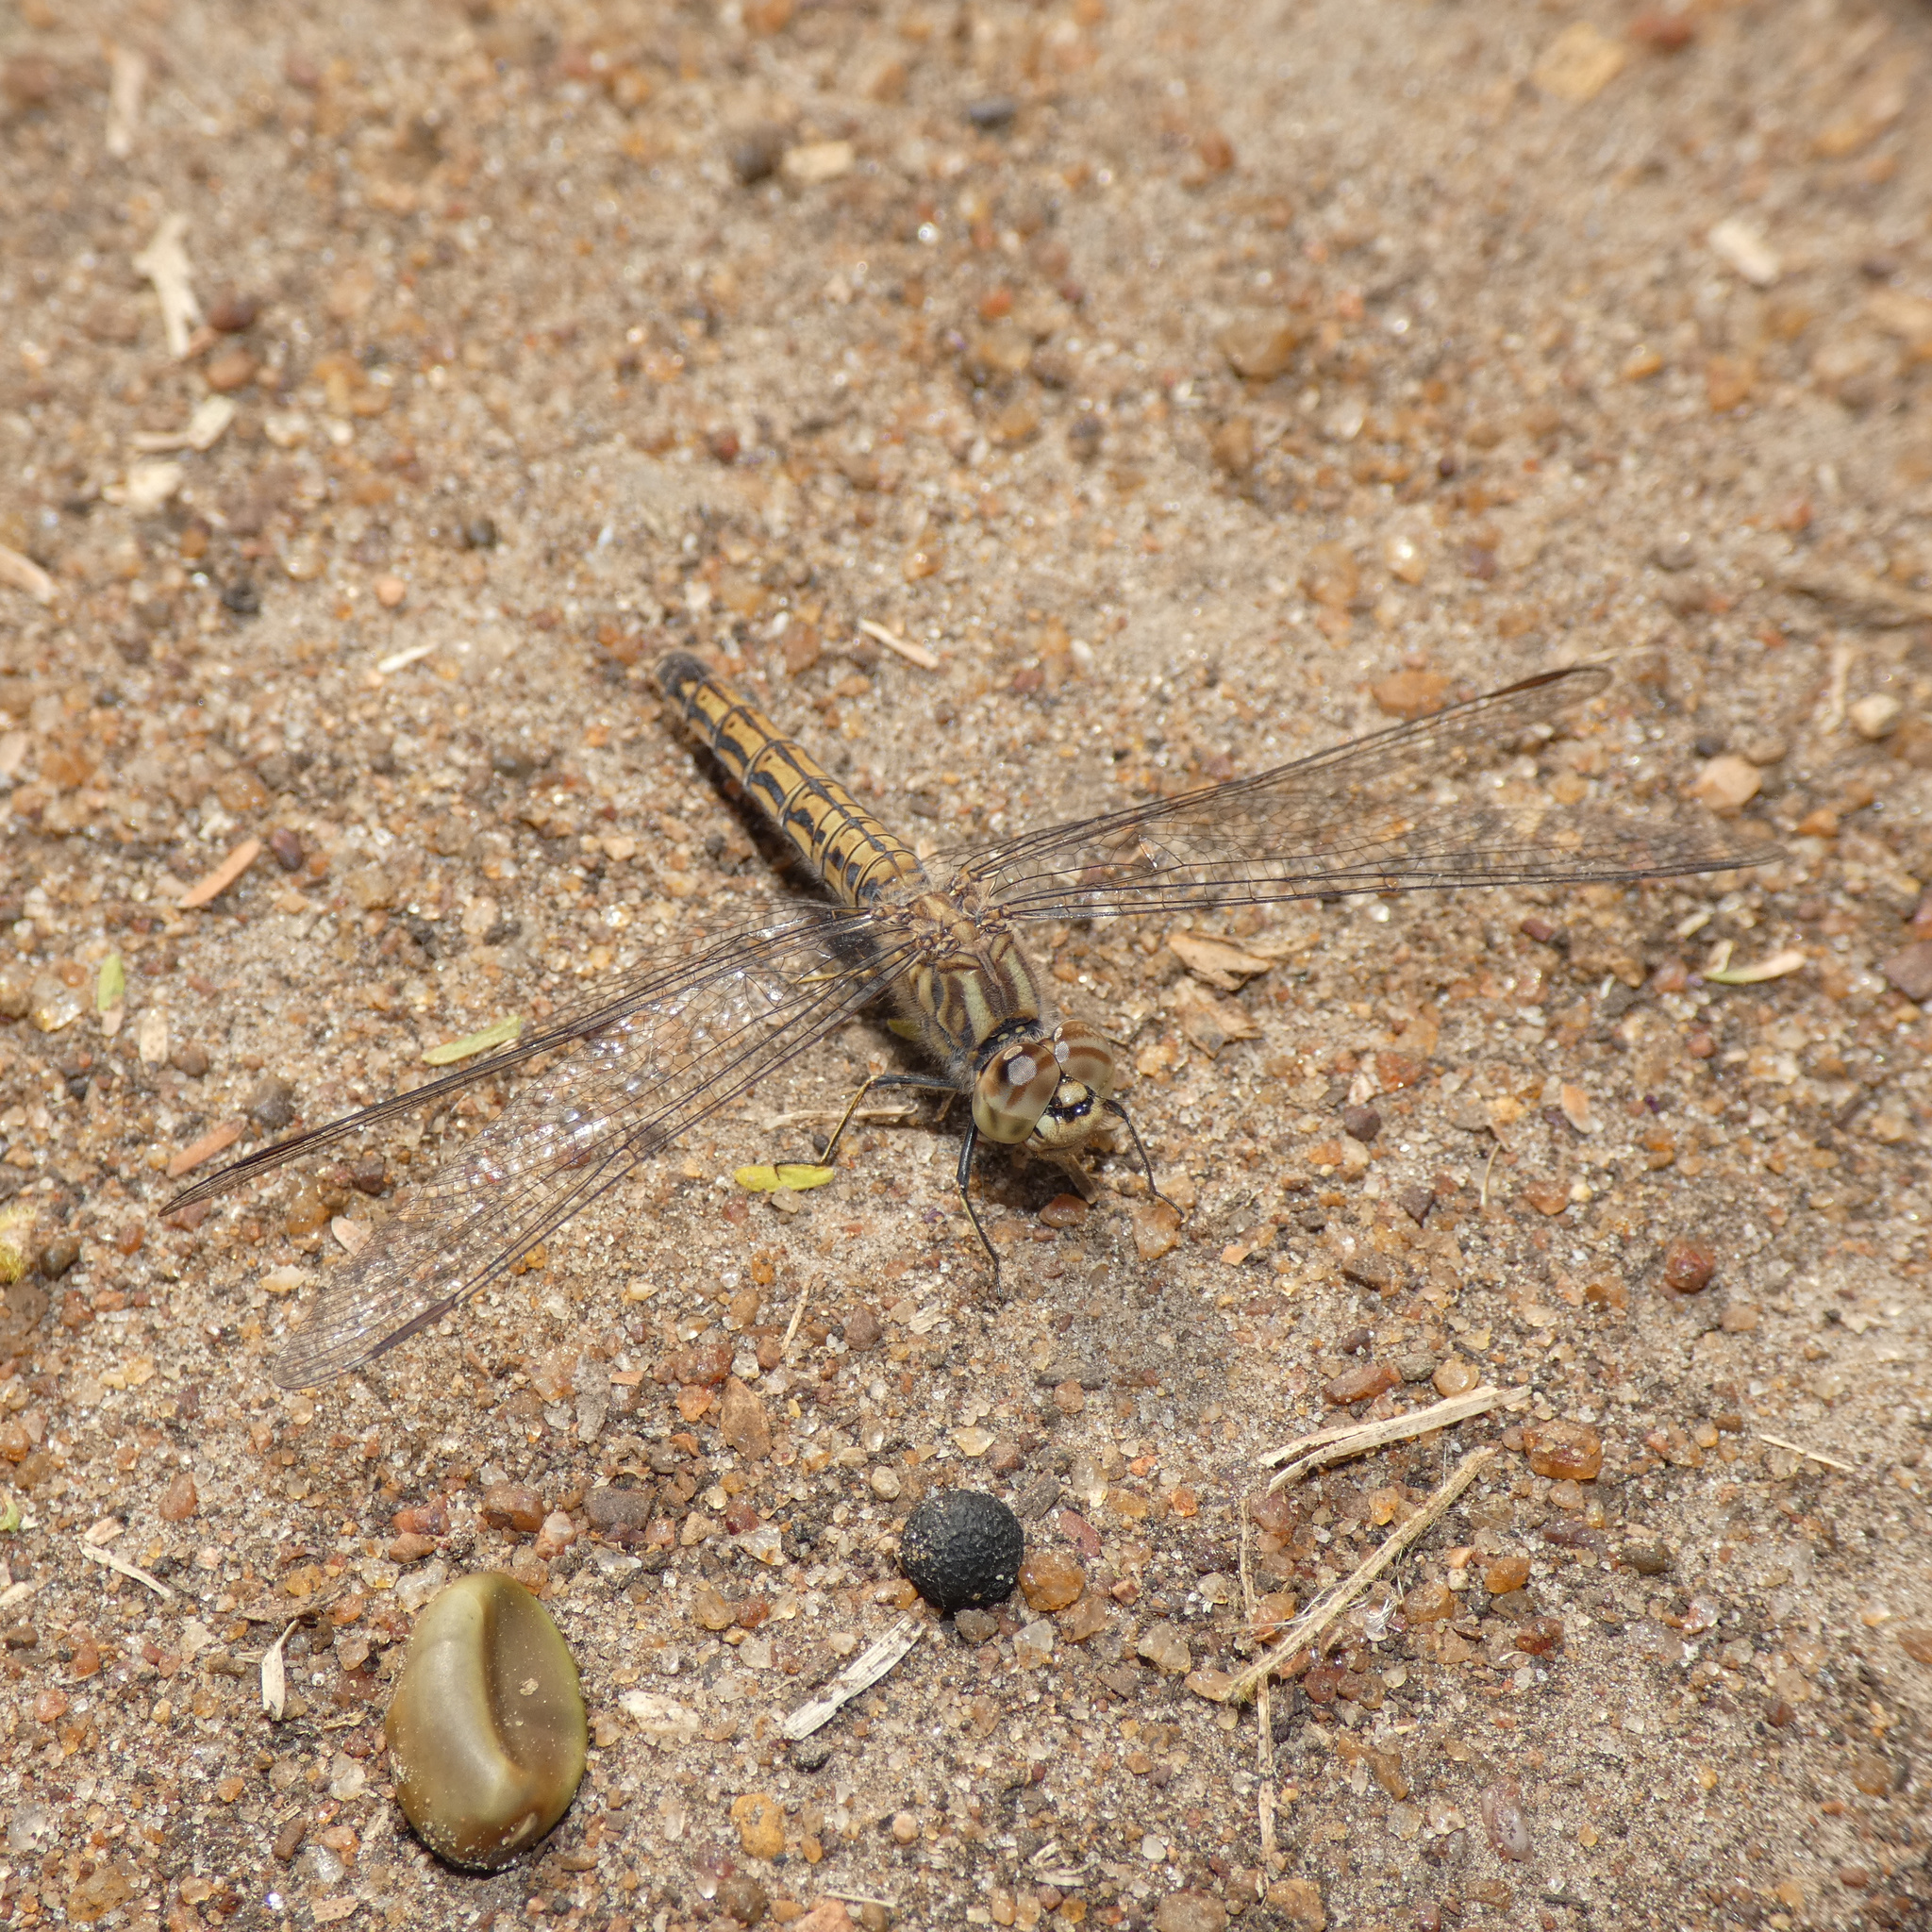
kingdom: Animalia
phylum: Arthropoda
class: Insecta
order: Odonata
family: Libellulidae
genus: Brachythemis
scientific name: Brachythemis leucosticta
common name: Banded groundling
